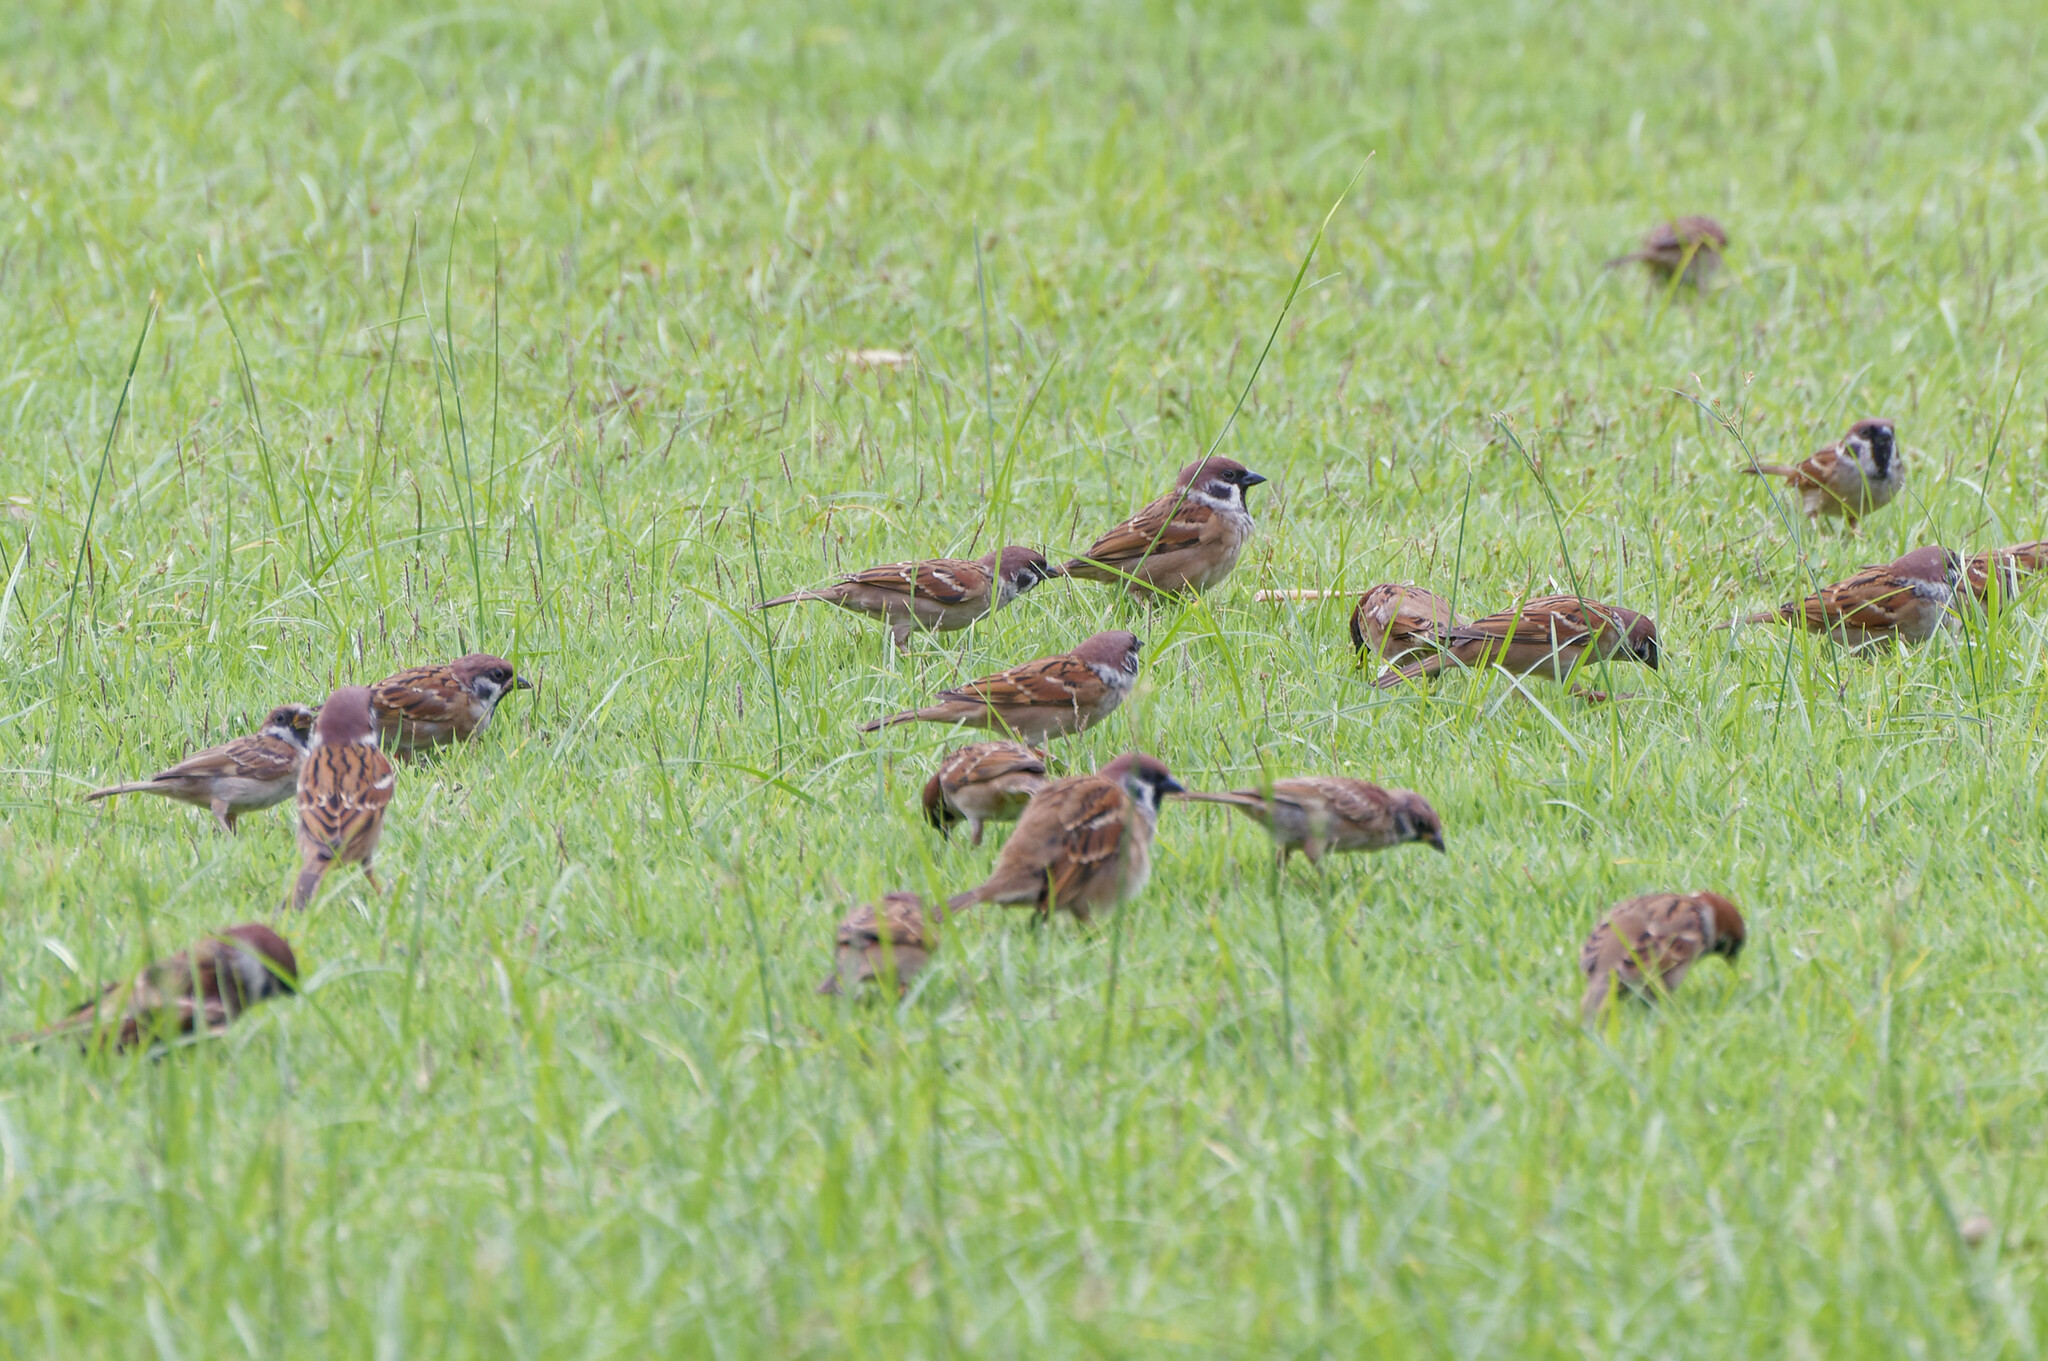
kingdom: Animalia
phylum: Chordata
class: Aves
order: Passeriformes
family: Passeridae
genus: Passer
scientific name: Passer montanus
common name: Eurasian tree sparrow
